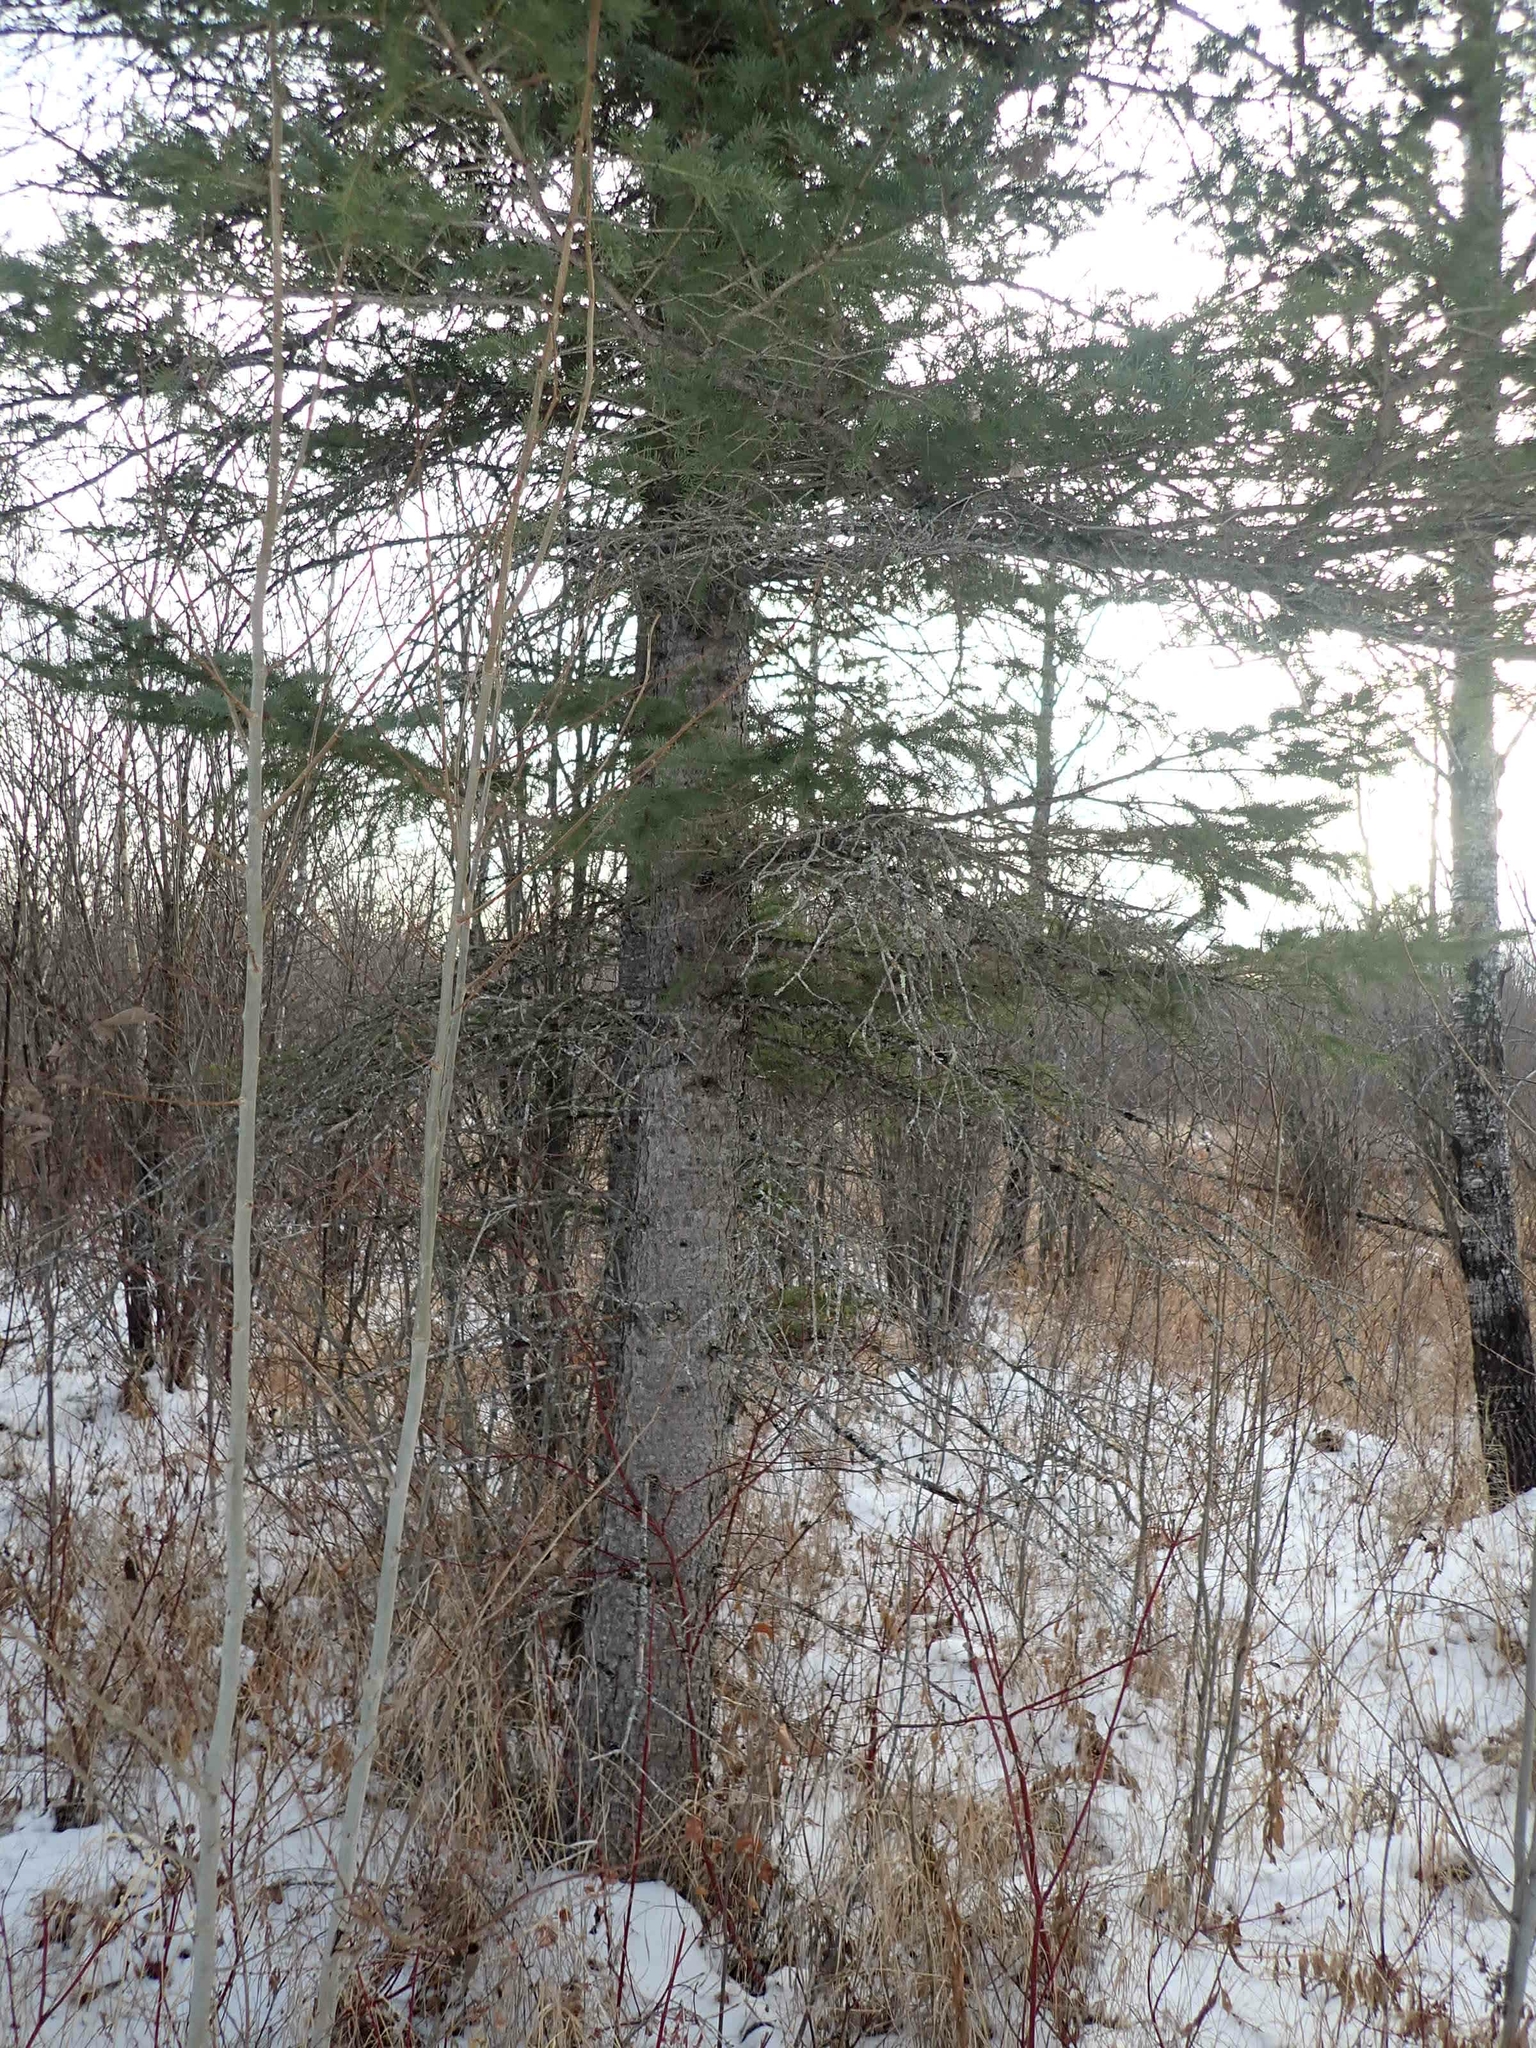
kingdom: Plantae
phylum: Tracheophyta
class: Pinopsida
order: Pinales
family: Pinaceae
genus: Picea
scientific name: Picea glauca
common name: White spruce
